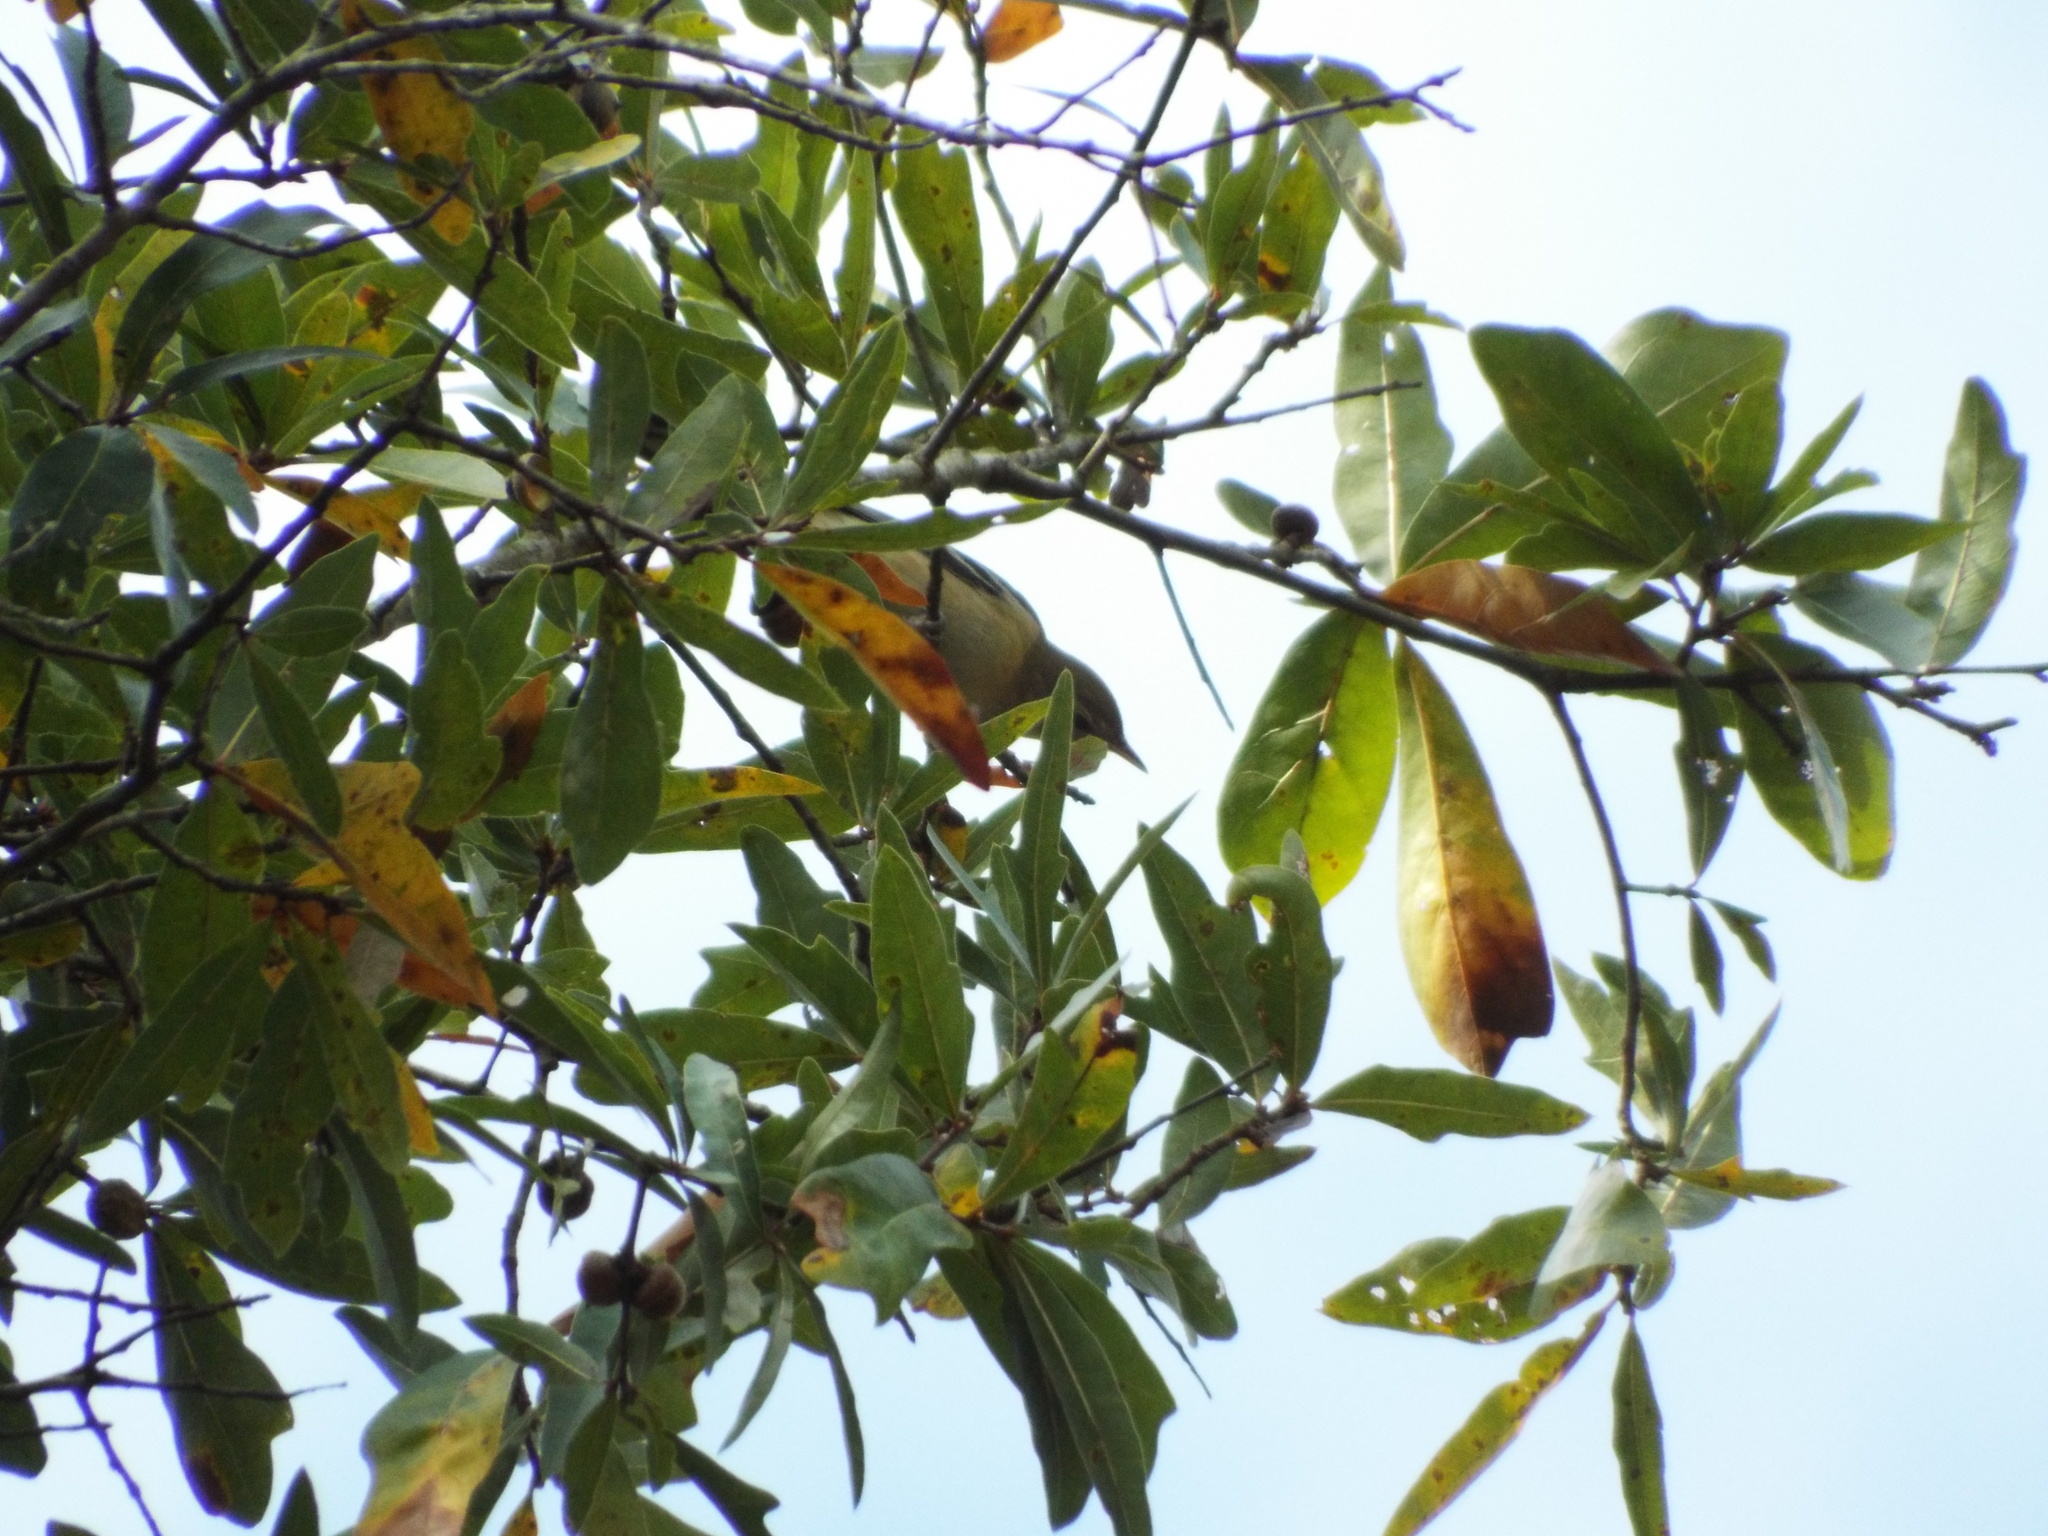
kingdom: Animalia
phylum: Chordata
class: Aves
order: Passeriformes
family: Parulidae
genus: Setophaga
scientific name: Setophaga castanea
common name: Bay-breasted warbler
